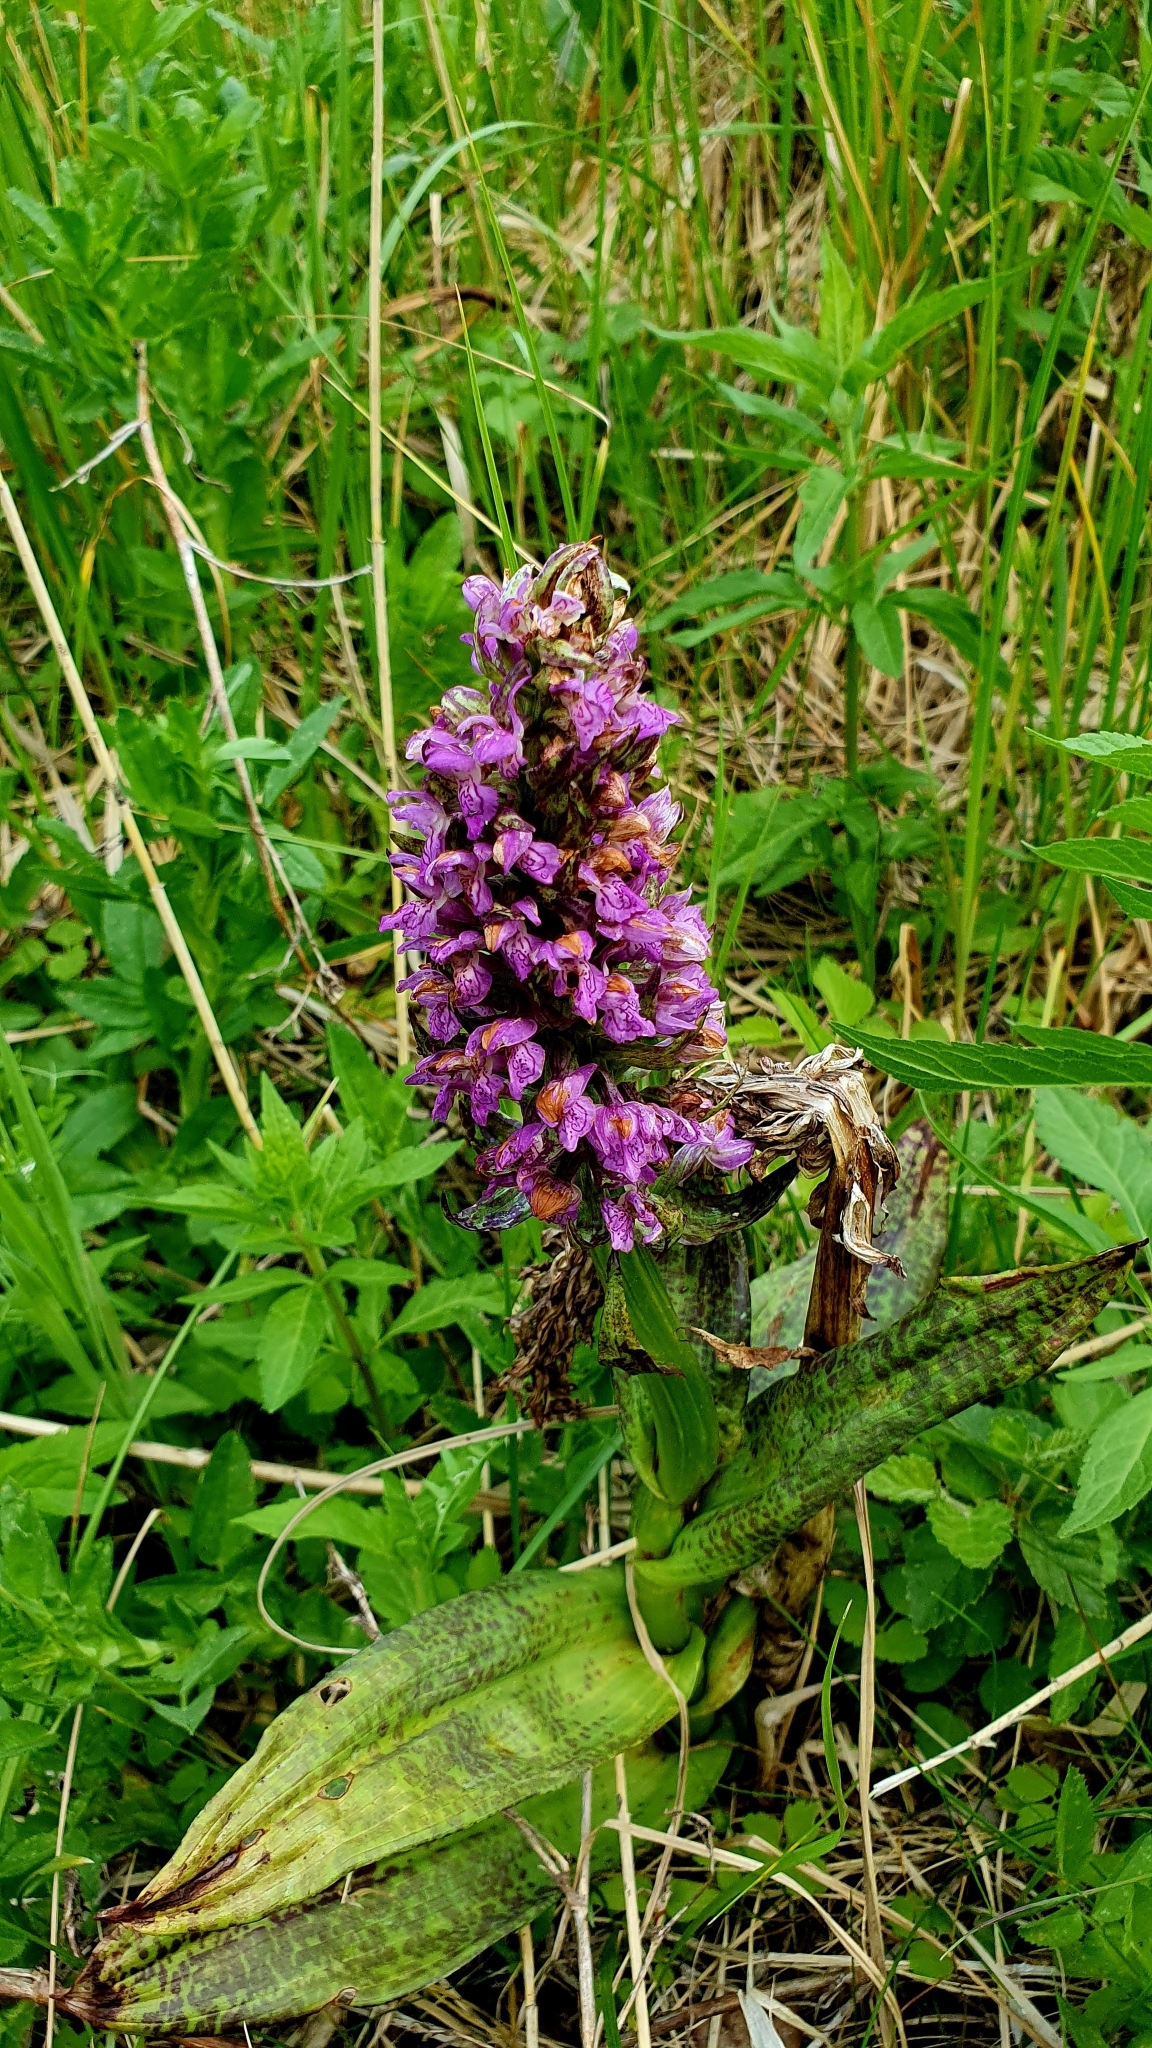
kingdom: Plantae
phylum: Tracheophyta
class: Liliopsida
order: Asparagales
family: Orchidaceae
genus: Dactylorhiza
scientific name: Dactylorhiza incarnata
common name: Early marsh-orchid
